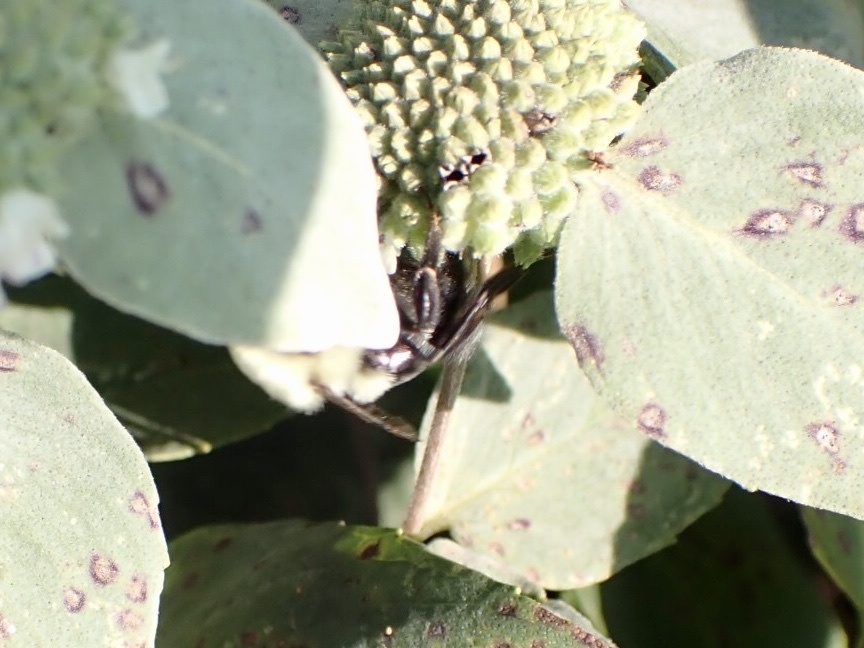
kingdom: Animalia
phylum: Arthropoda
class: Insecta
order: Hymenoptera
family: Apidae
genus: Bombus
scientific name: Bombus impatiens
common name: Common eastern bumble bee
